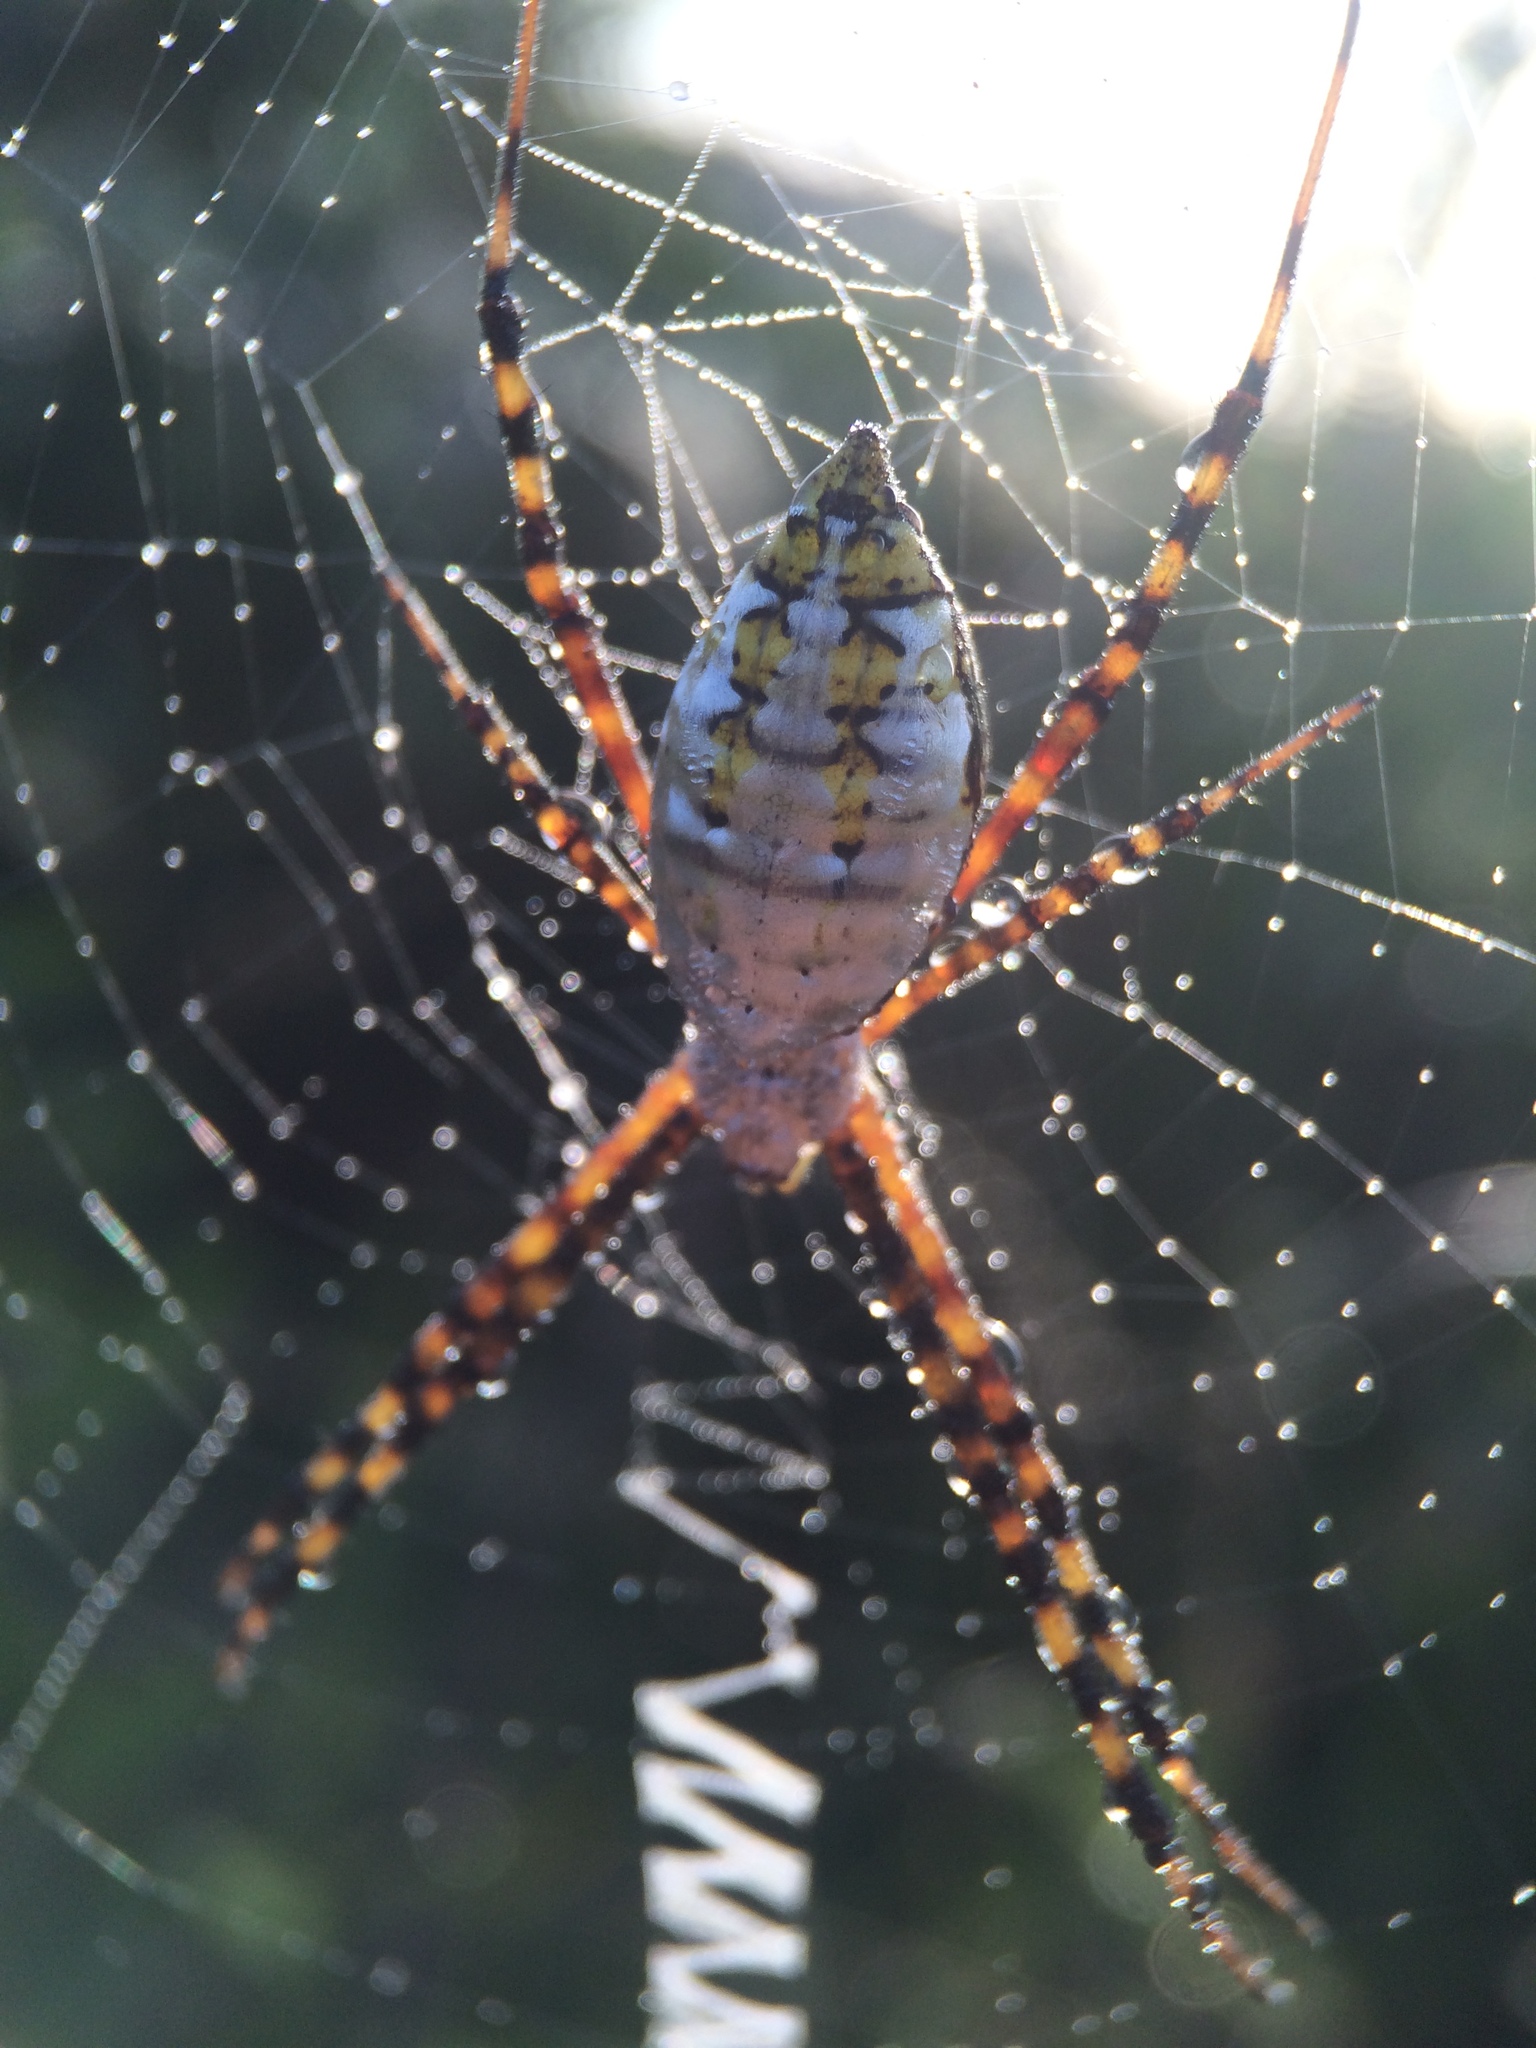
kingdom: Animalia
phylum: Arthropoda
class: Arachnida
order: Araneae
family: Araneidae
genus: Argiope
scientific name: Argiope trifasciata
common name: Banded garden spider
